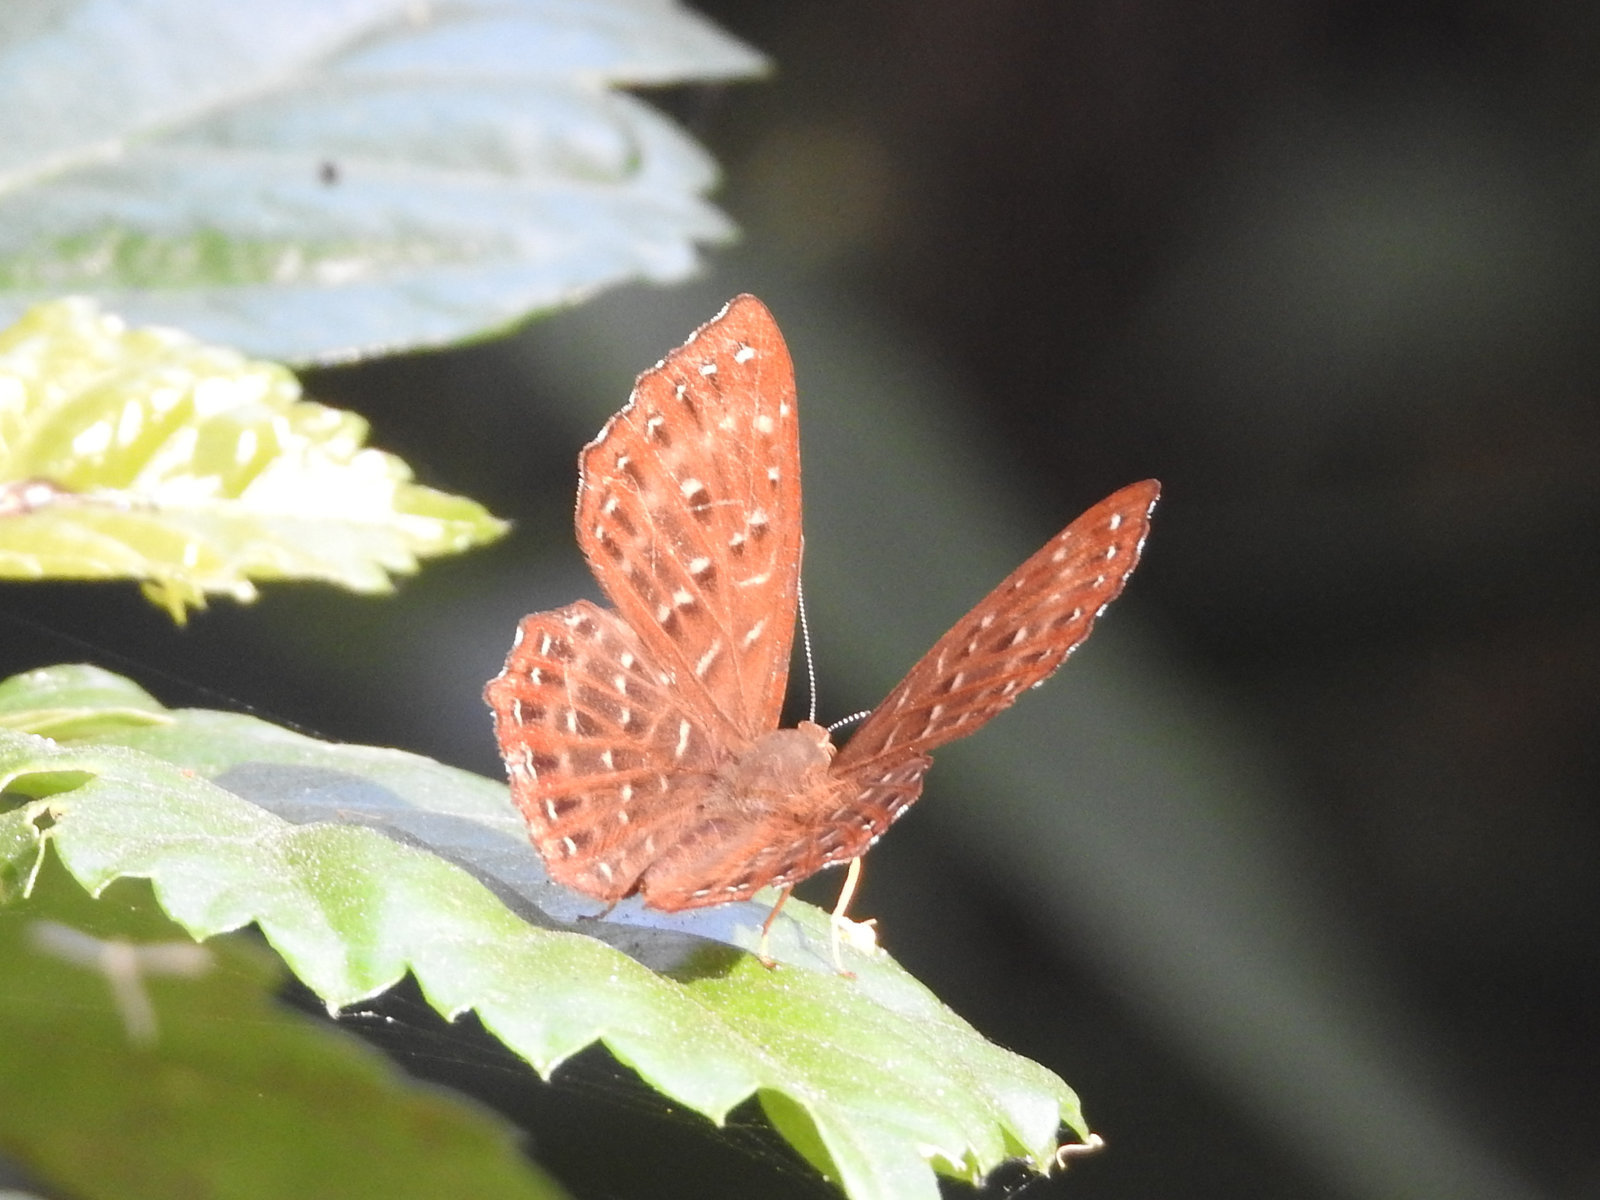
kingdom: Animalia
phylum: Arthropoda
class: Insecta
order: Lepidoptera
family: Riodinidae
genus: Zemeros
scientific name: Zemeros flegyas
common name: Punchinello
